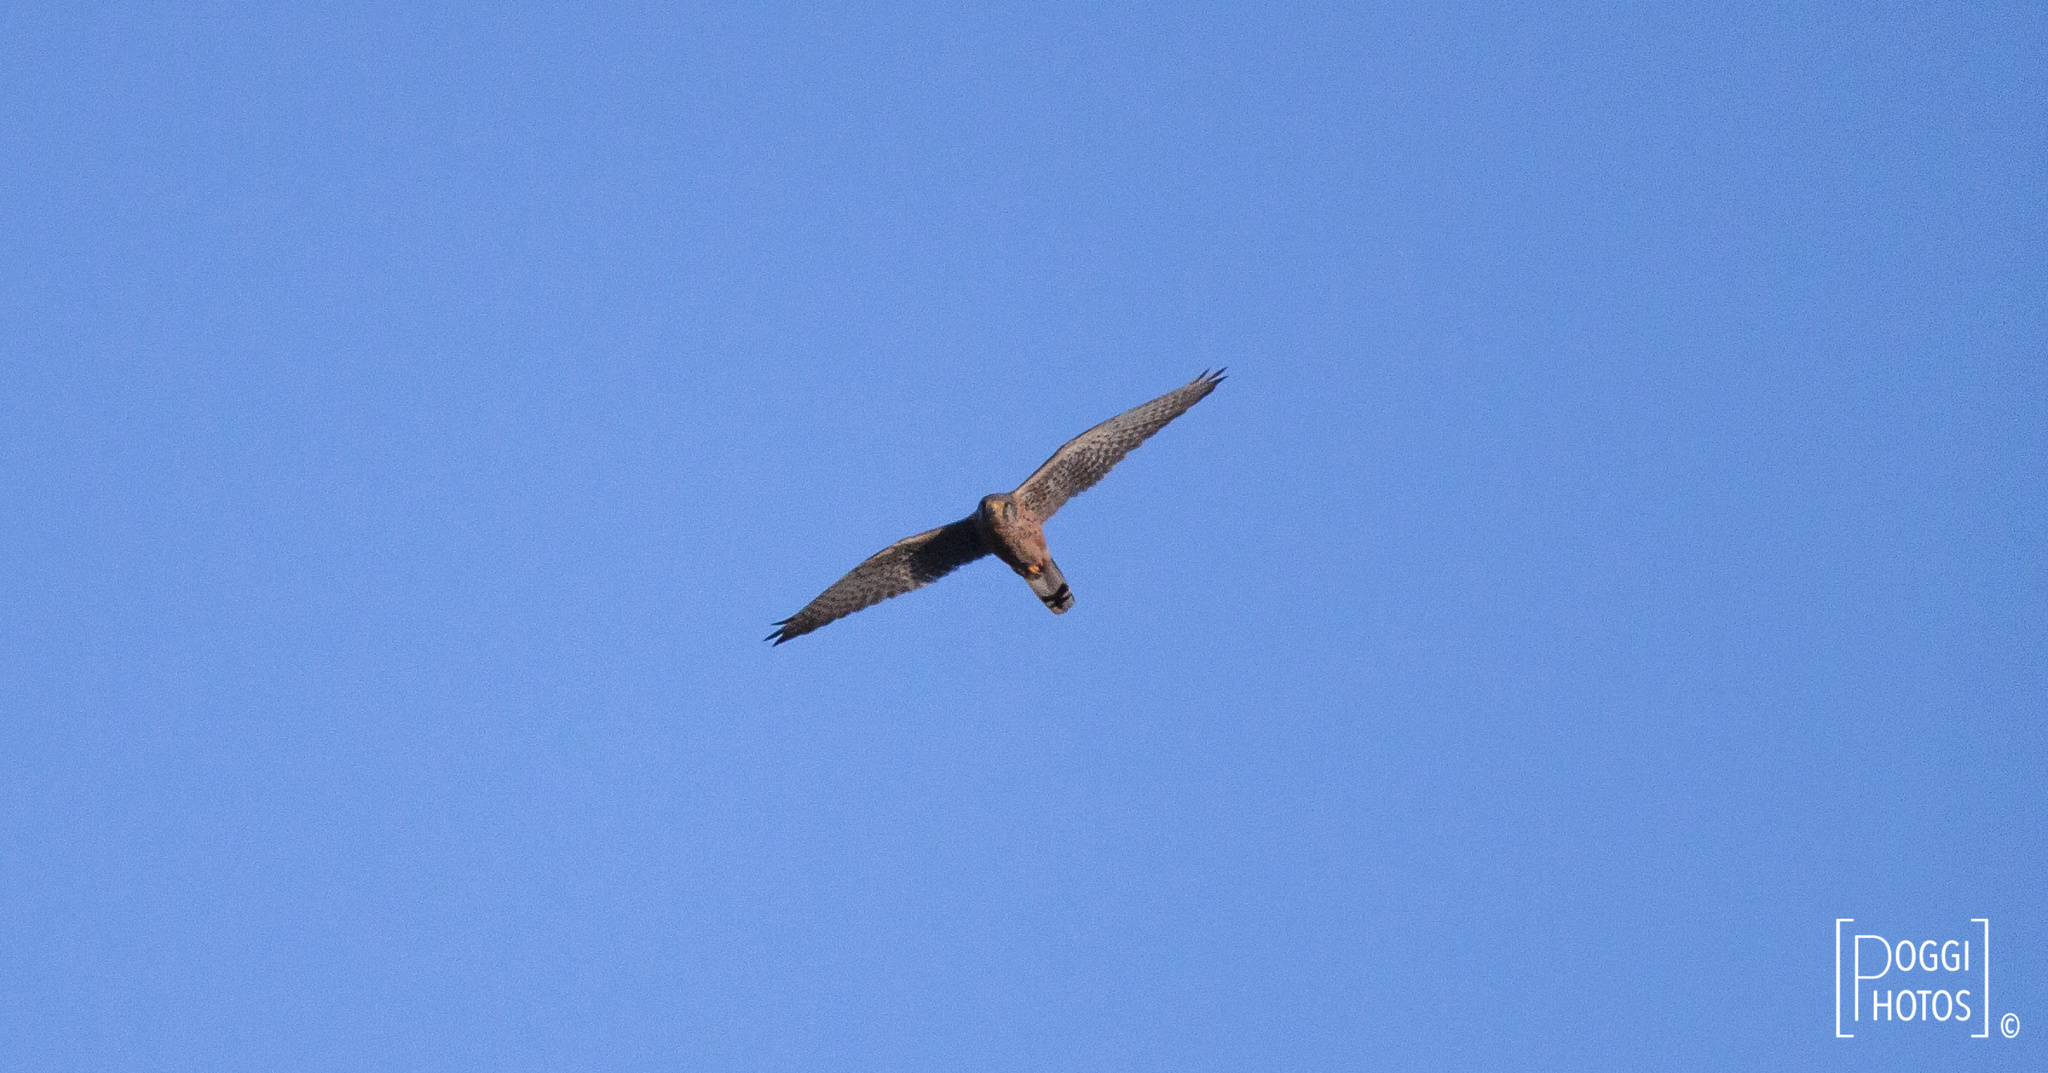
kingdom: Animalia
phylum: Chordata
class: Aves
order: Falconiformes
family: Falconidae
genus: Falco
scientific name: Falco tinnunculus
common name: Common kestrel
